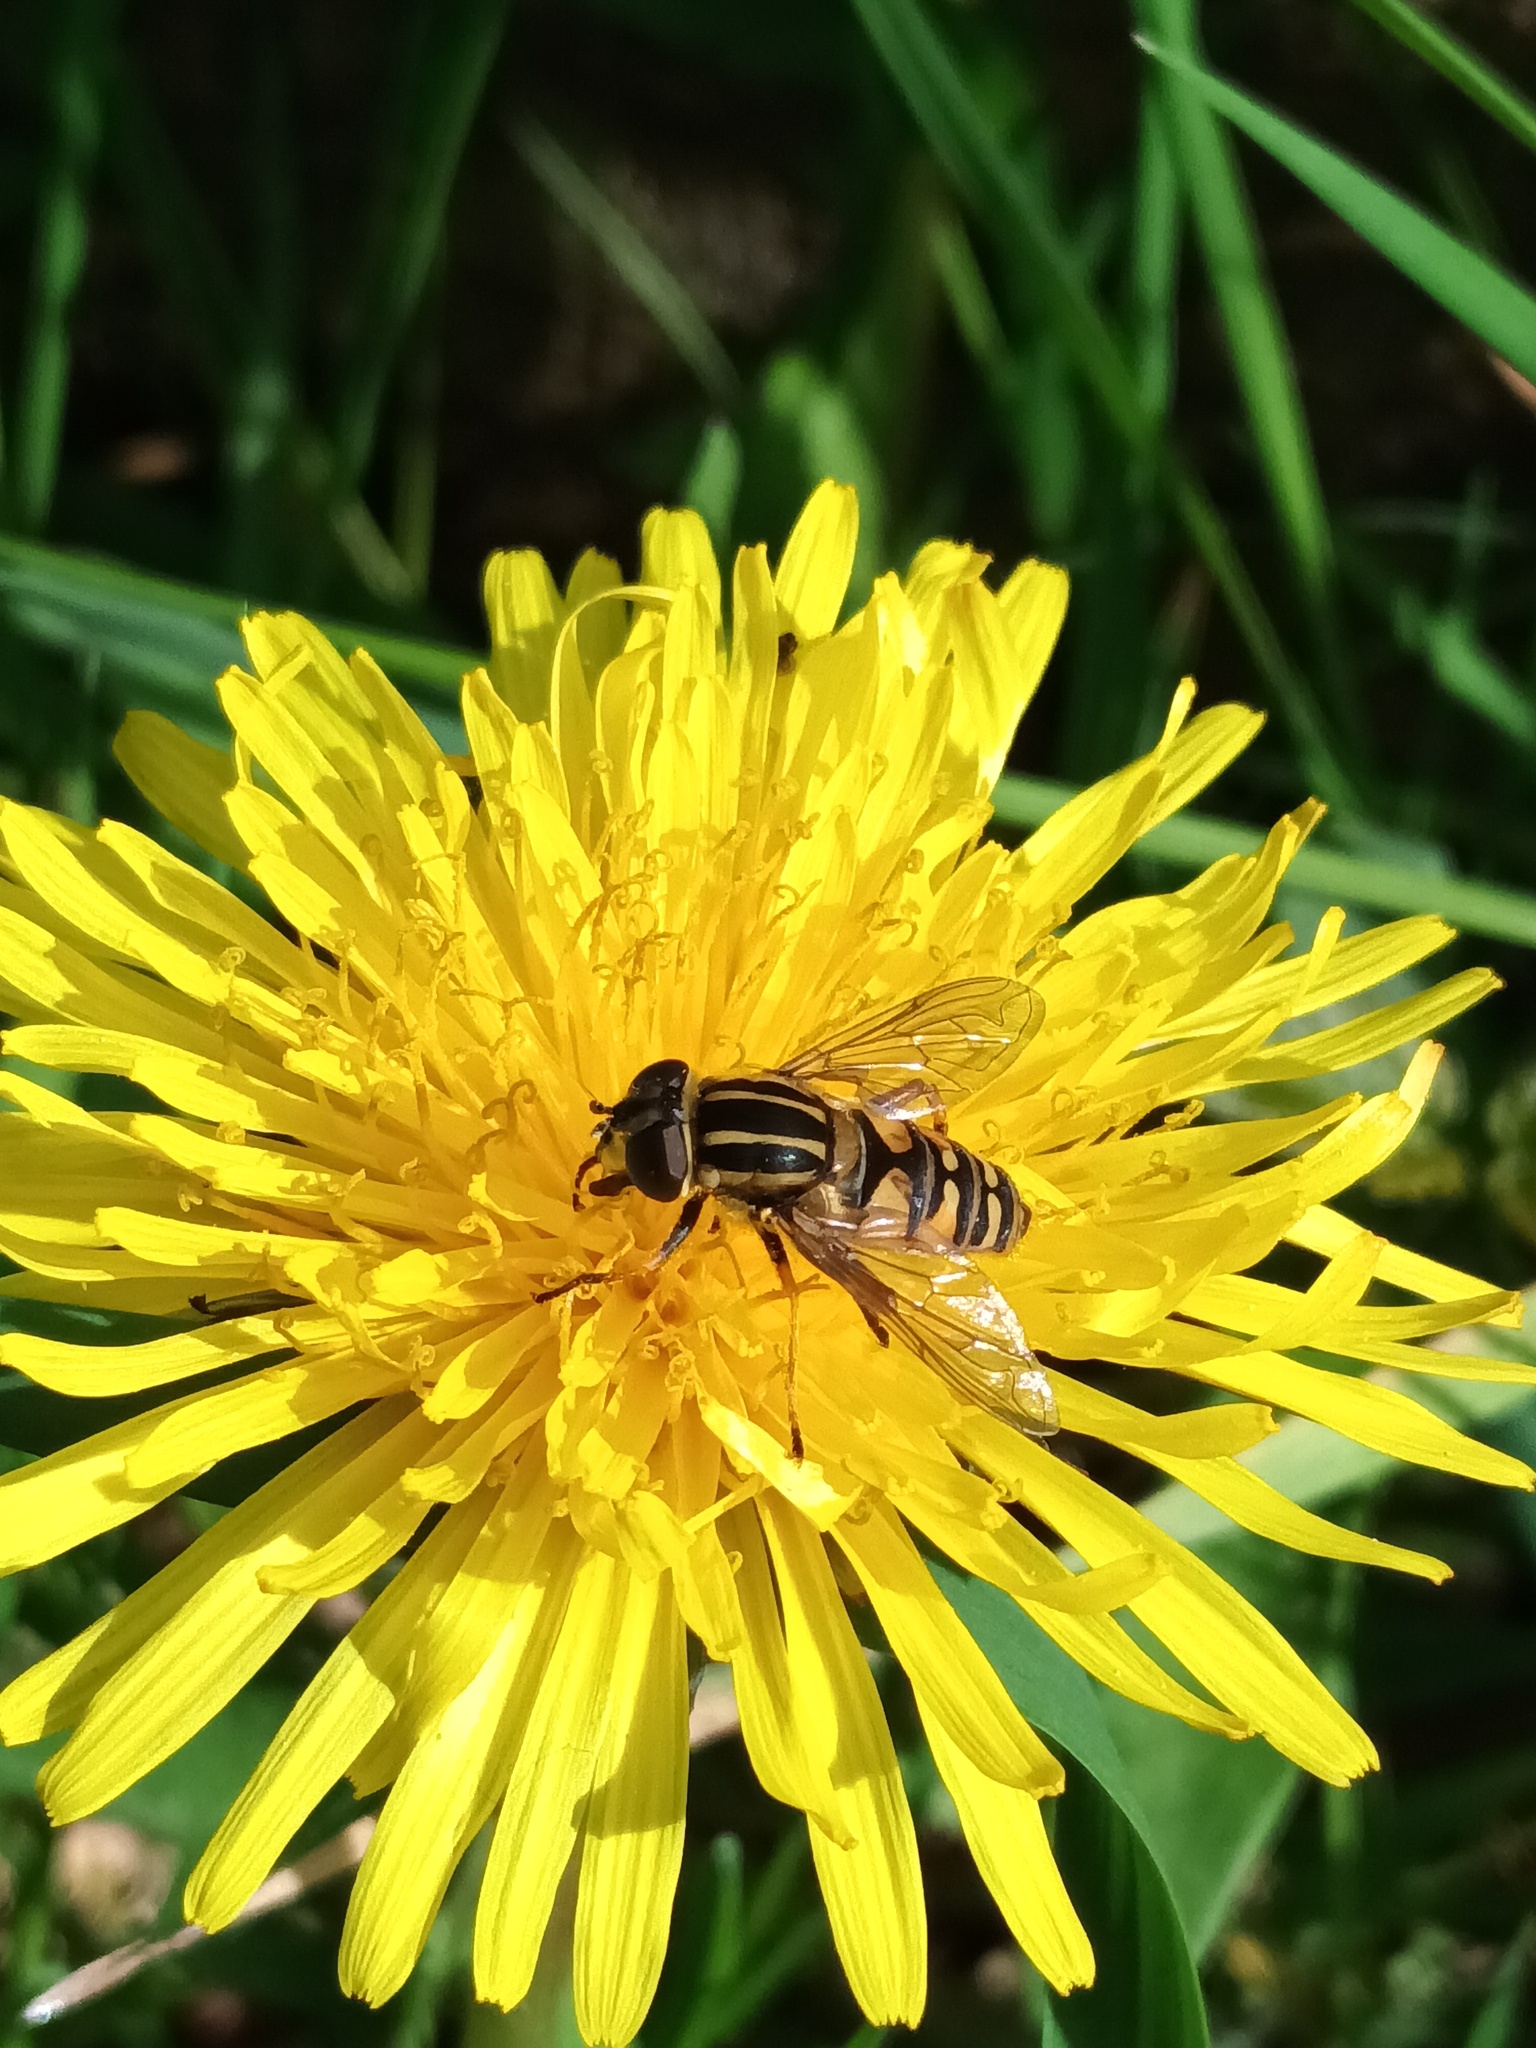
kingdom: Animalia
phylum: Arthropoda
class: Insecta
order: Diptera
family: Syrphidae
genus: Helophilus
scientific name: Helophilus pendulus
